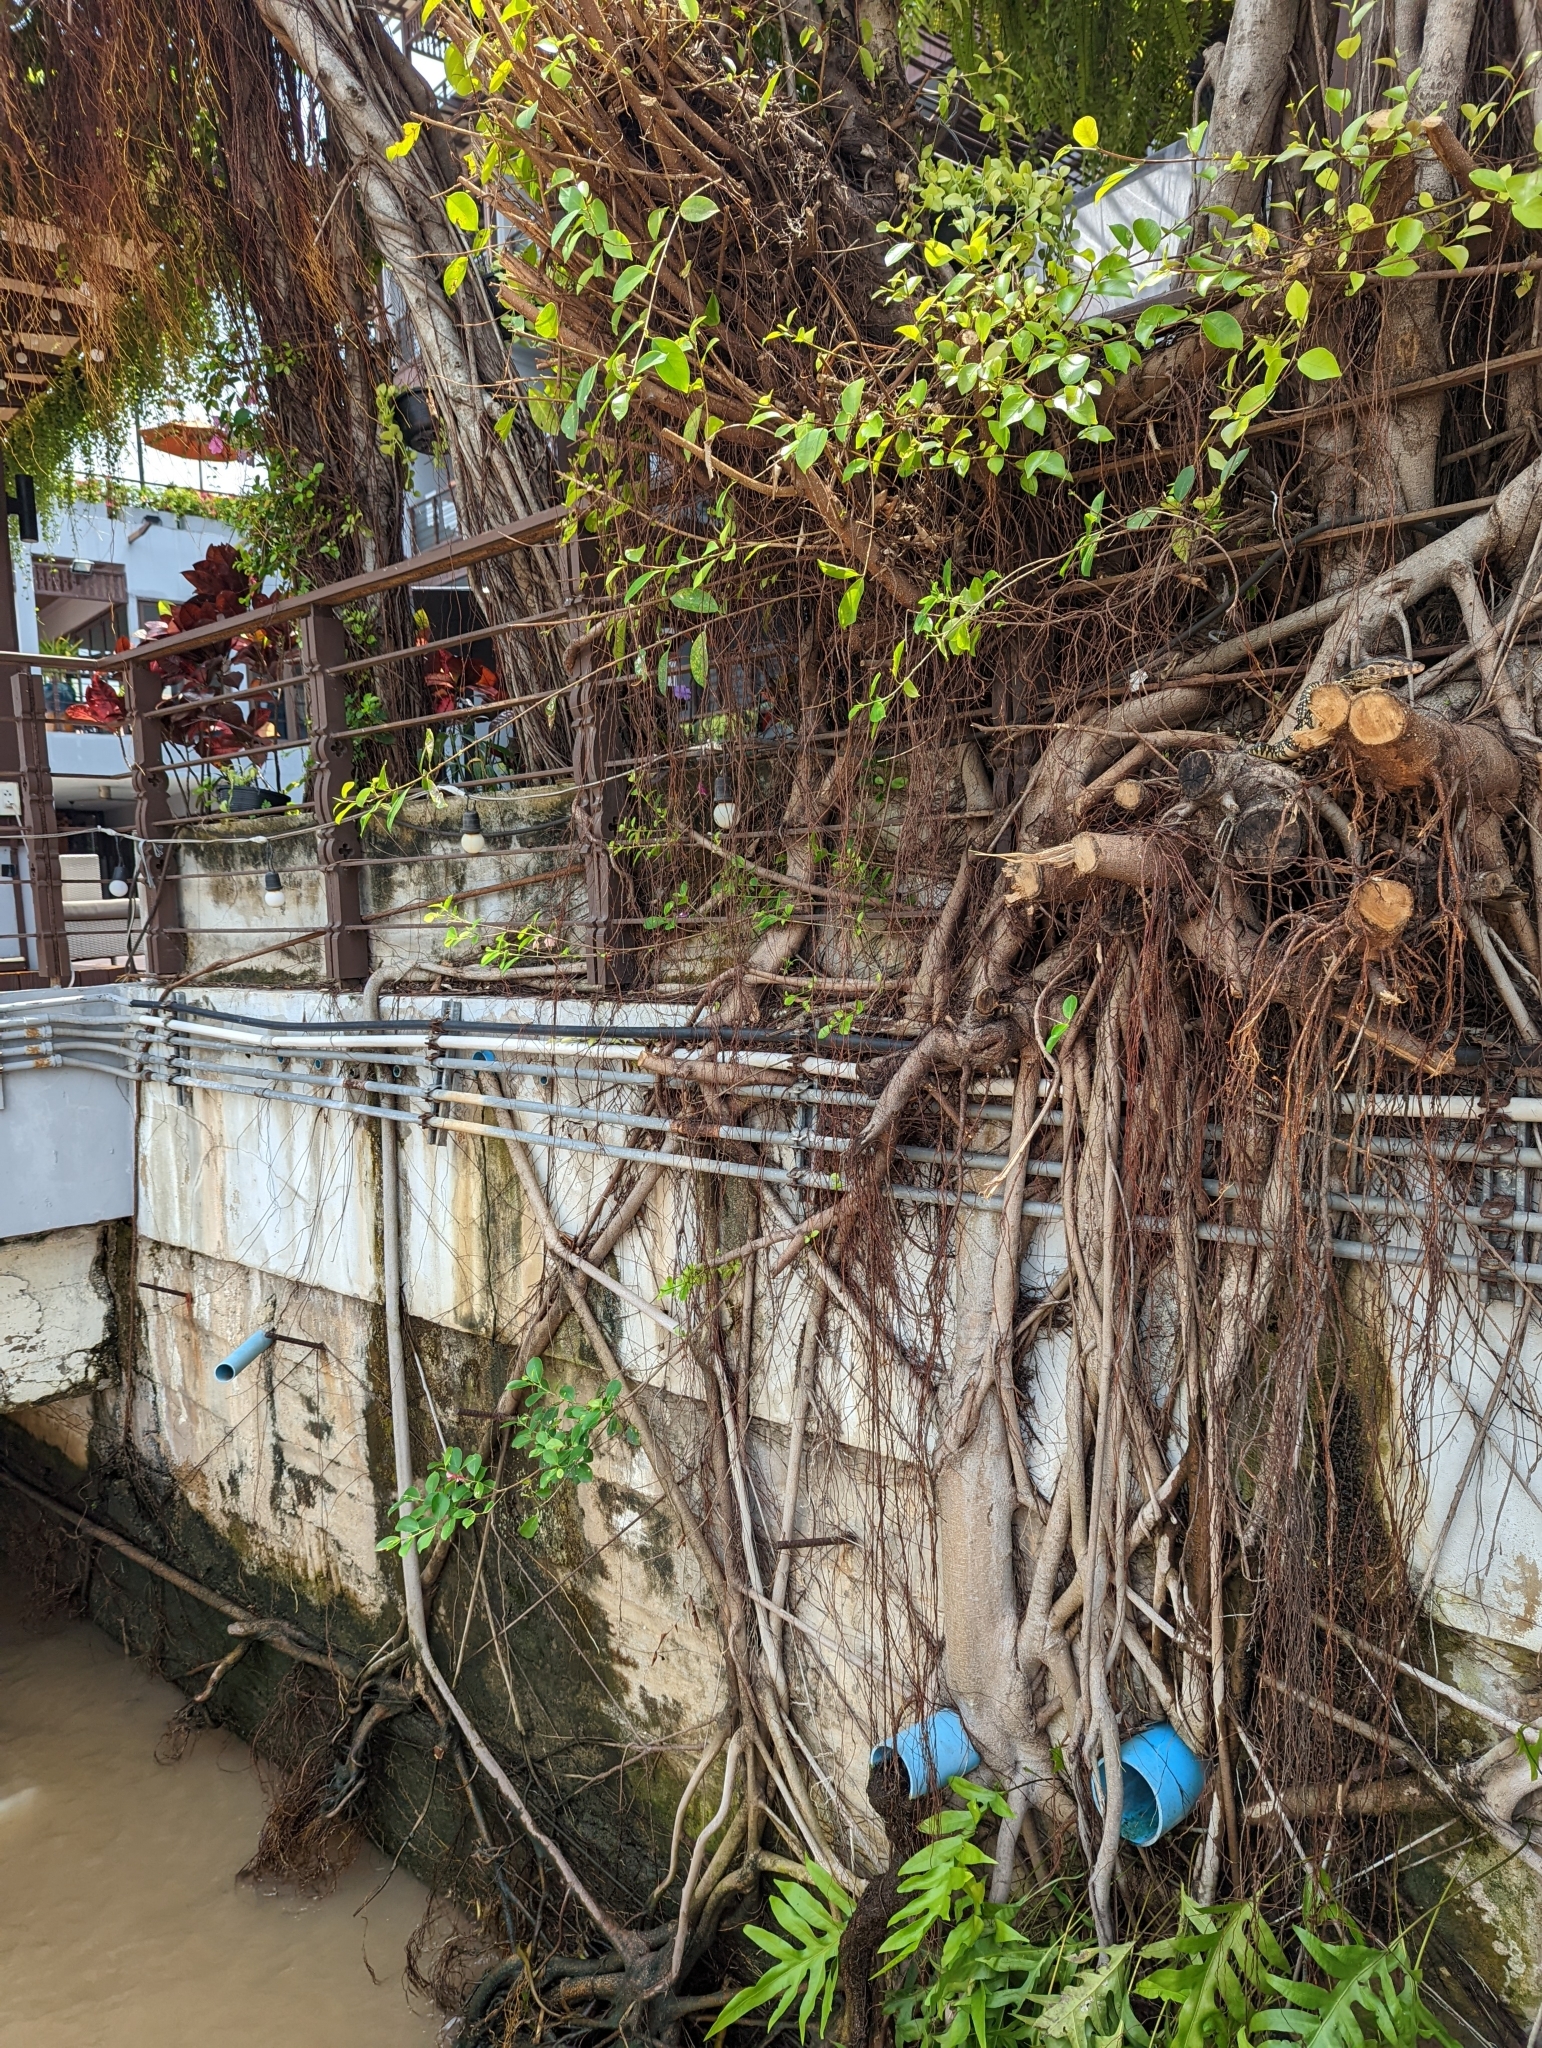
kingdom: Plantae
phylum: Tracheophyta
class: Magnoliopsida
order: Rosales
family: Moraceae
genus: Ficus
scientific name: Ficus microcarpa
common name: Chinese banyan
